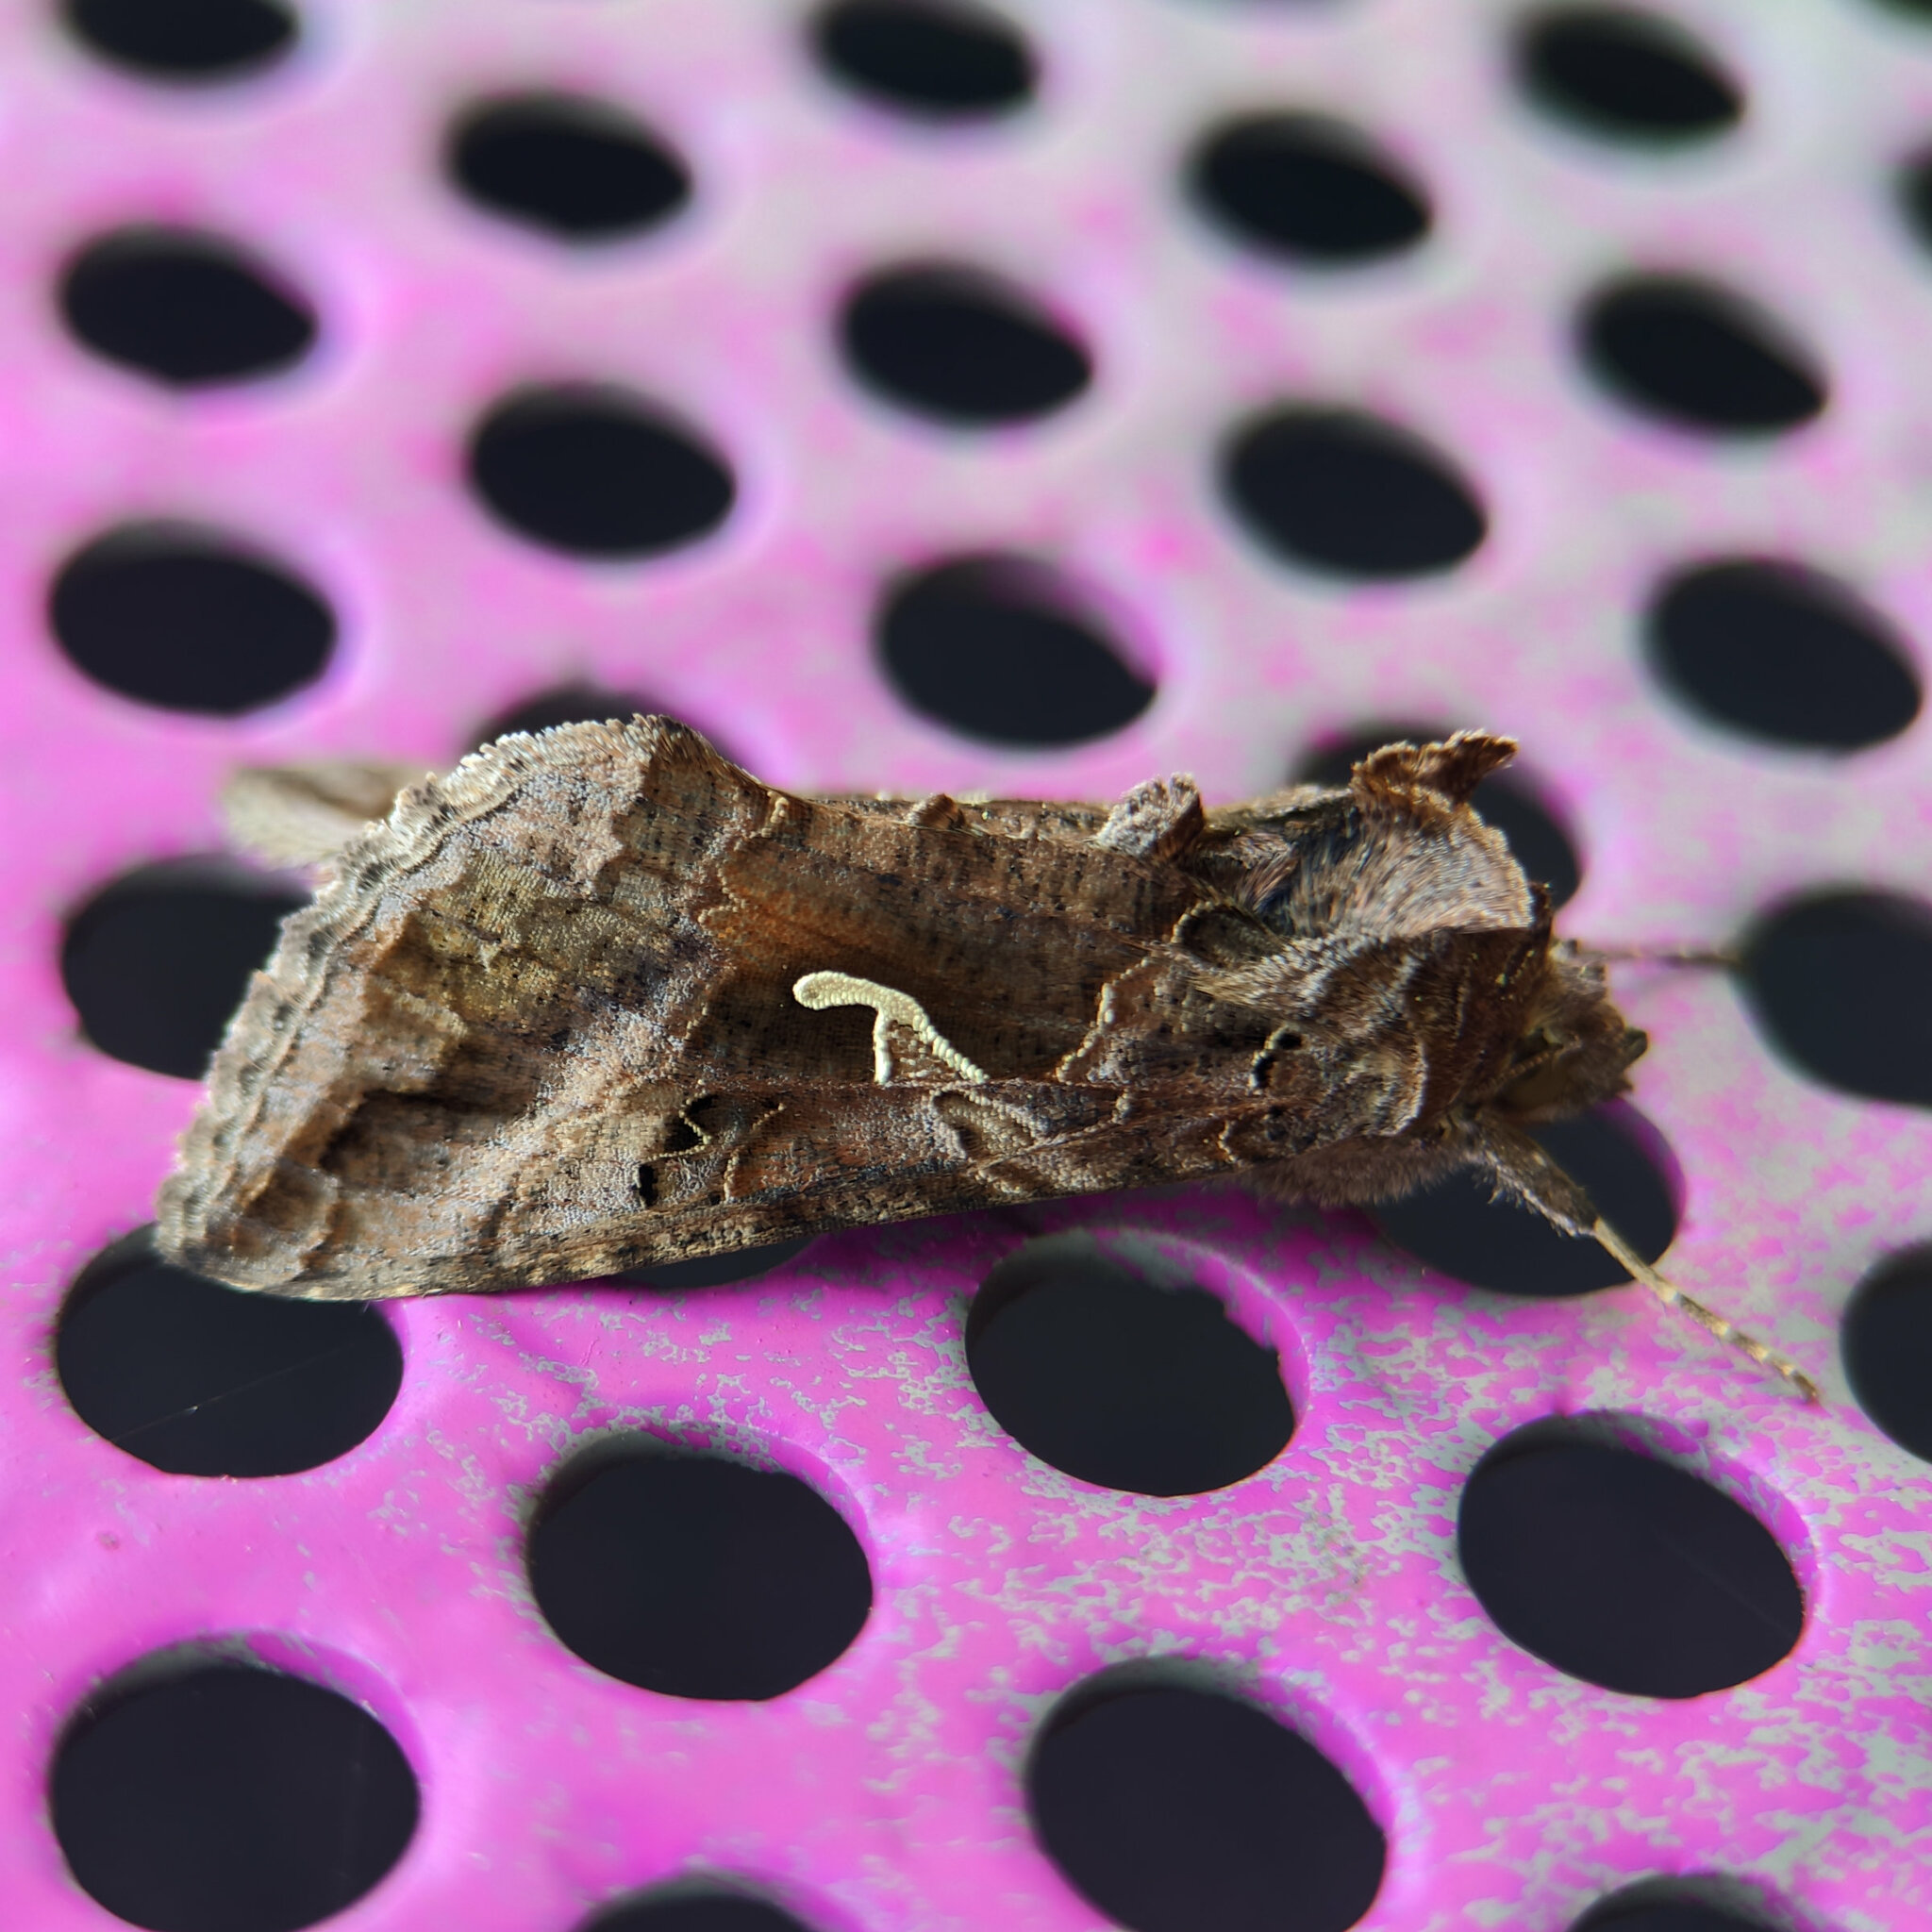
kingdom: Animalia
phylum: Arthropoda
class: Insecta
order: Lepidoptera
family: Noctuidae
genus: Autographa
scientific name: Autographa gamma
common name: Silver y
